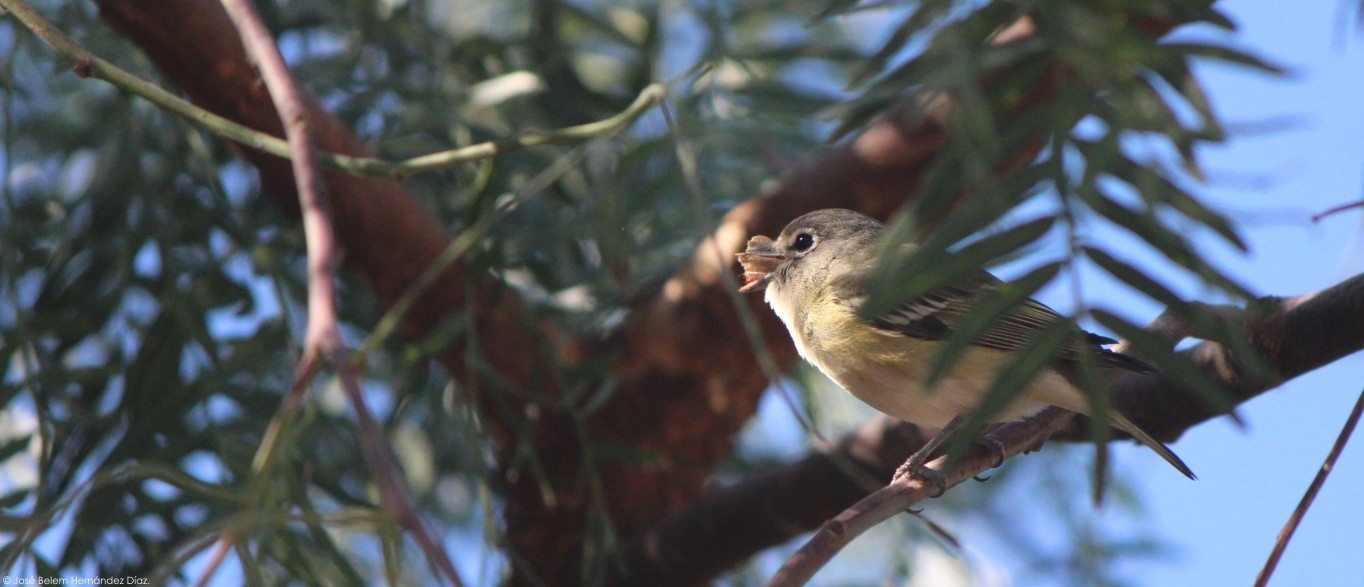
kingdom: Animalia
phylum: Chordata
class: Aves
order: Passeriformes
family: Vireonidae
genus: Vireo
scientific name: Vireo cassinii
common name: Cassin's vireo
